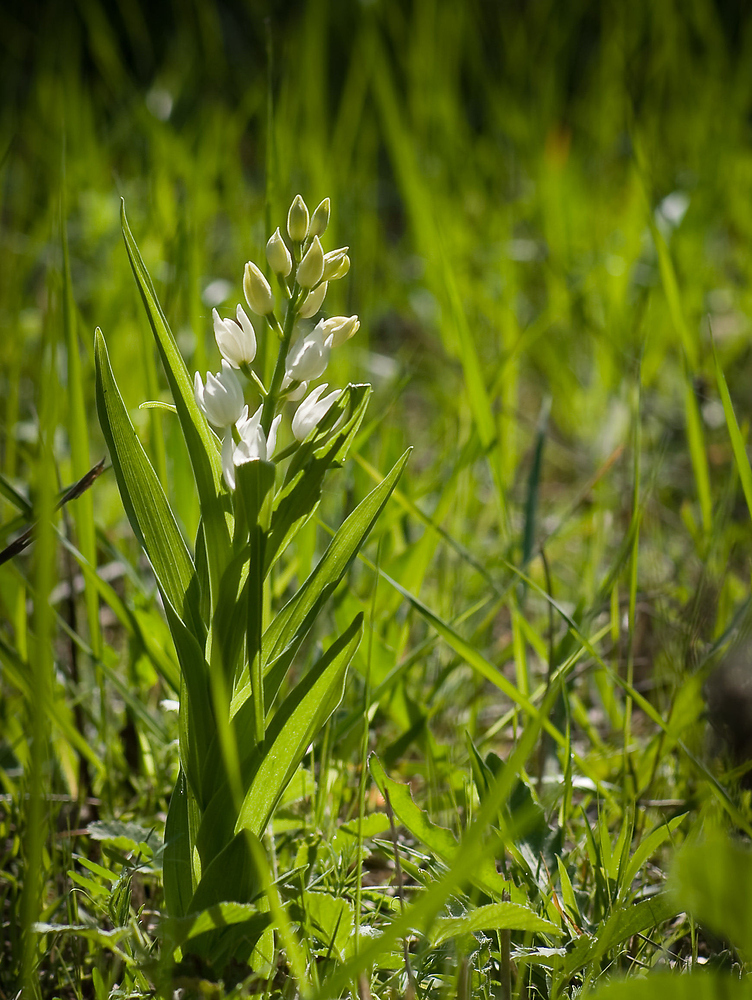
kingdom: Plantae
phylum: Tracheophyta
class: Liliopsida
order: Asparagales
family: Orchidaceae
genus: Cephalanthera
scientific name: Cephalanthera longifolia
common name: Narrow-leaved helleborine
